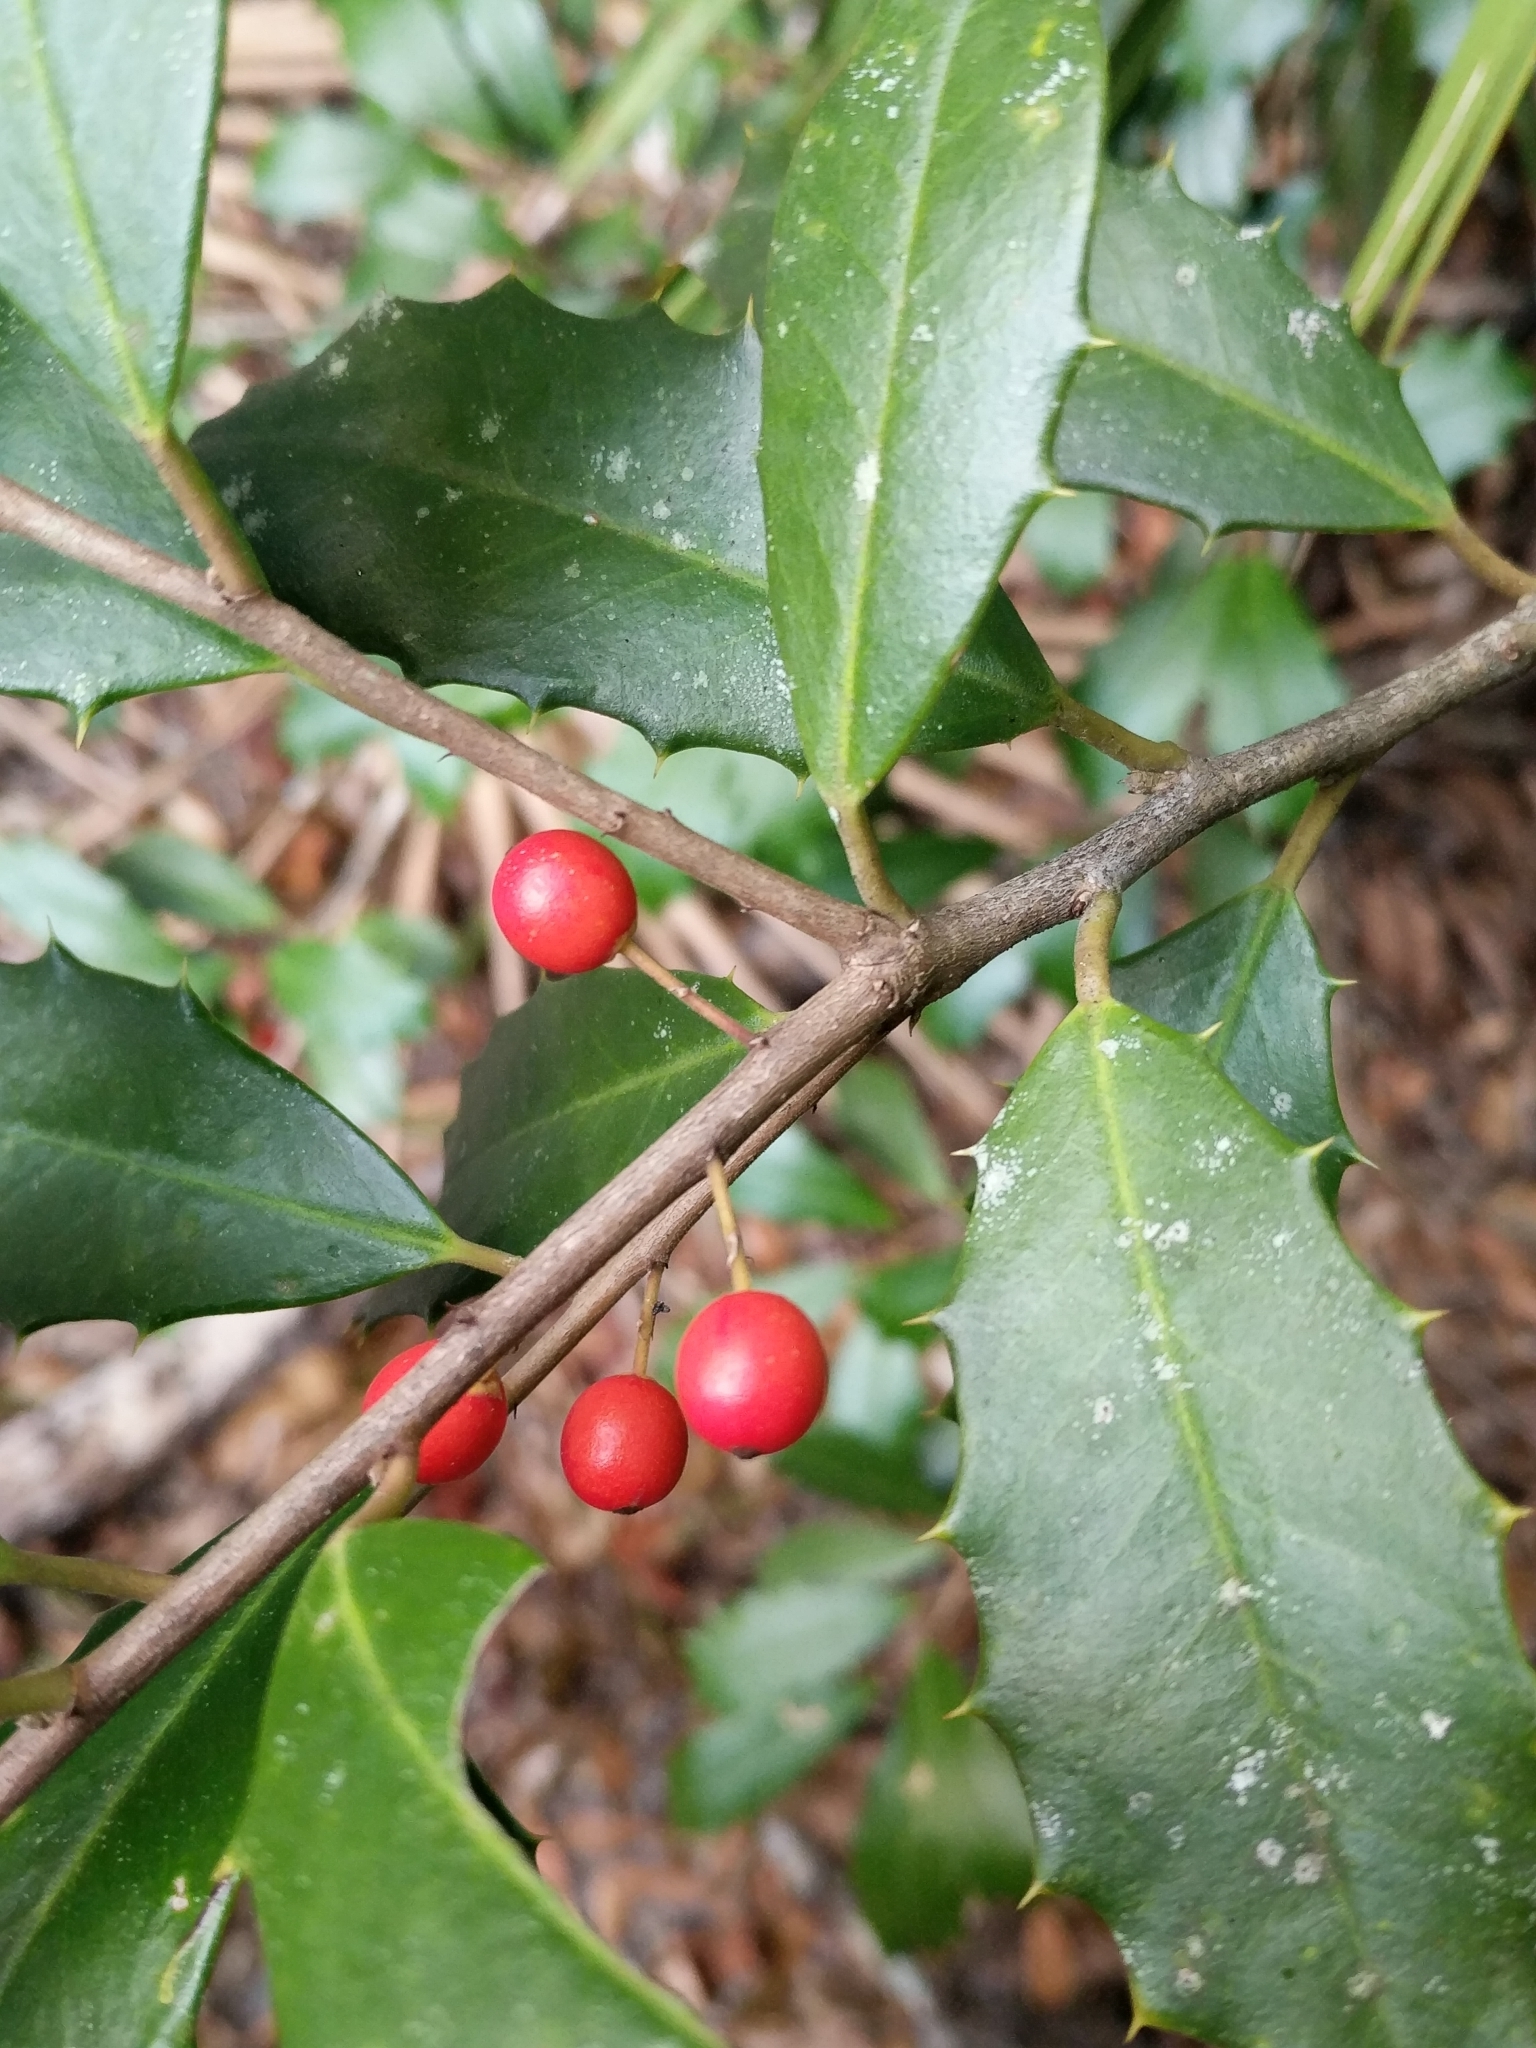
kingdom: Plantae
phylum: Tracheophyta
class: Magnoliopsida
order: Aquifoliales
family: Aquifoliaceae
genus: Ilex
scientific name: Ilex opaca
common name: American holly
